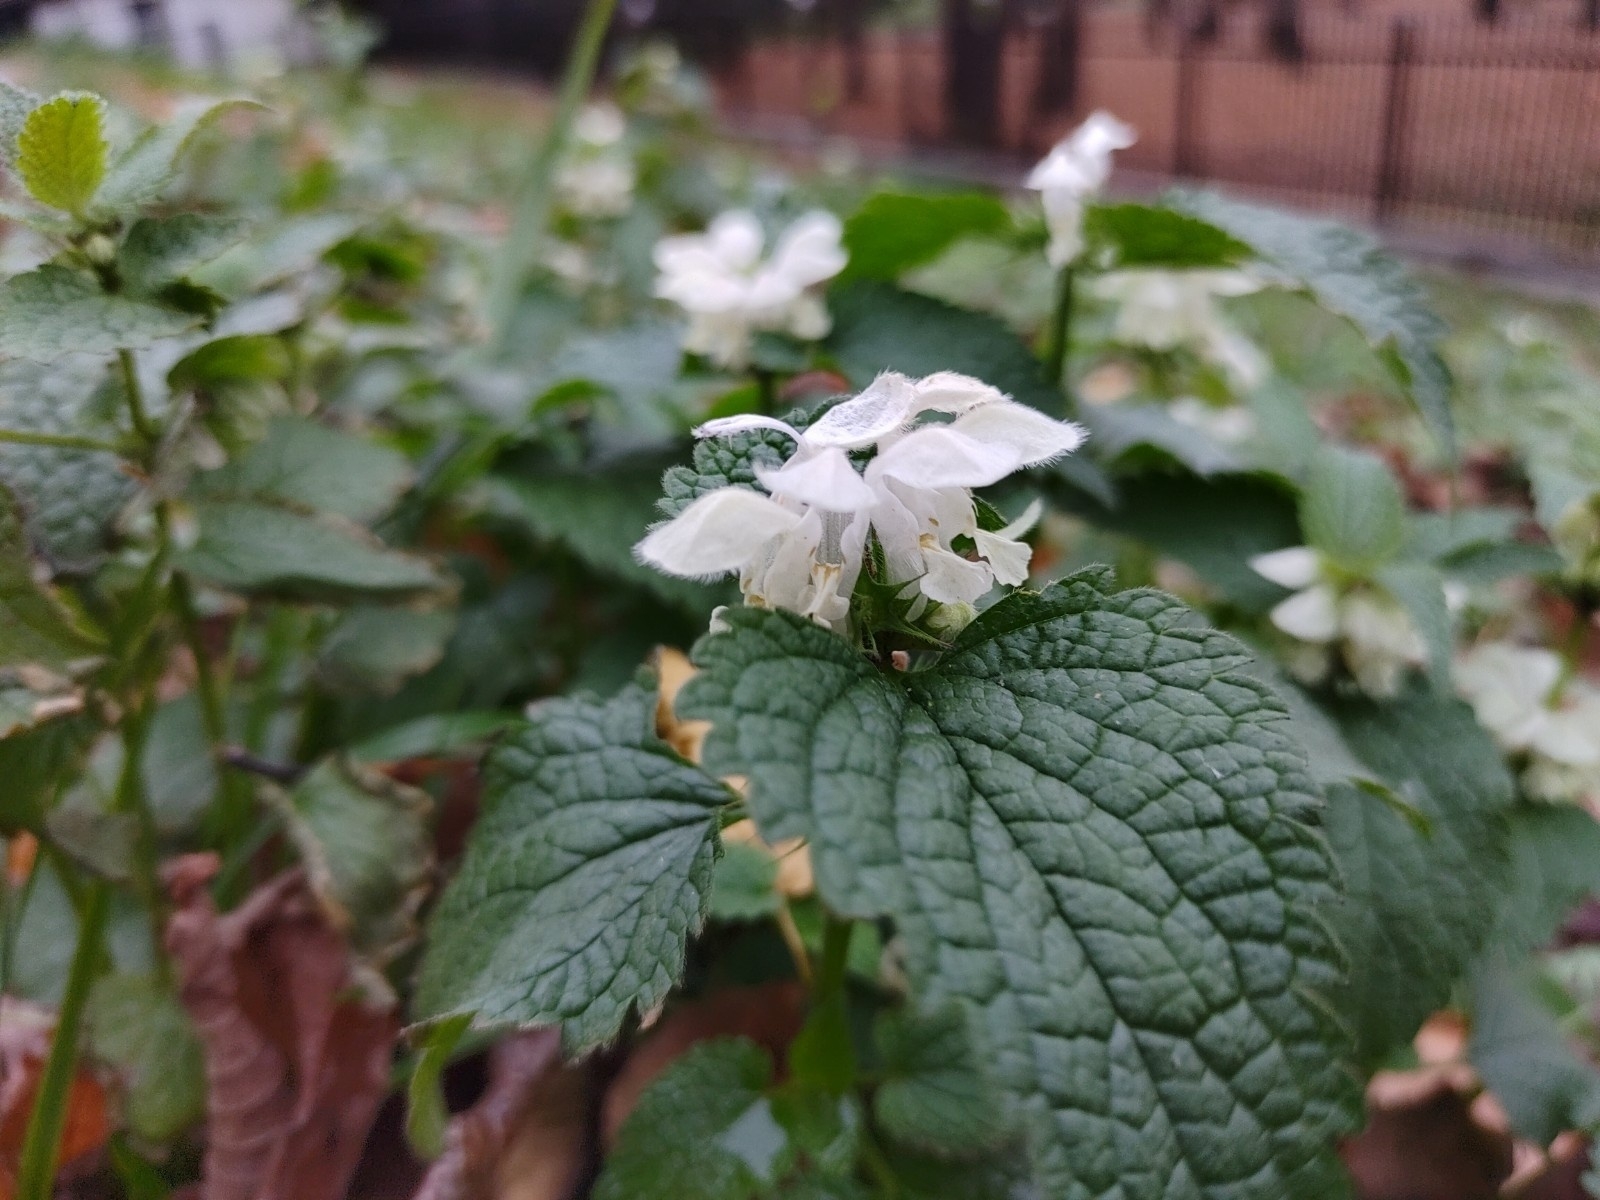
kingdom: Plantae
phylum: Tracheophyta
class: Magnoliopsida
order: Lamiales
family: Lamiaceae
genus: Lamium
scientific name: Lamium album
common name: White dead-nettle
